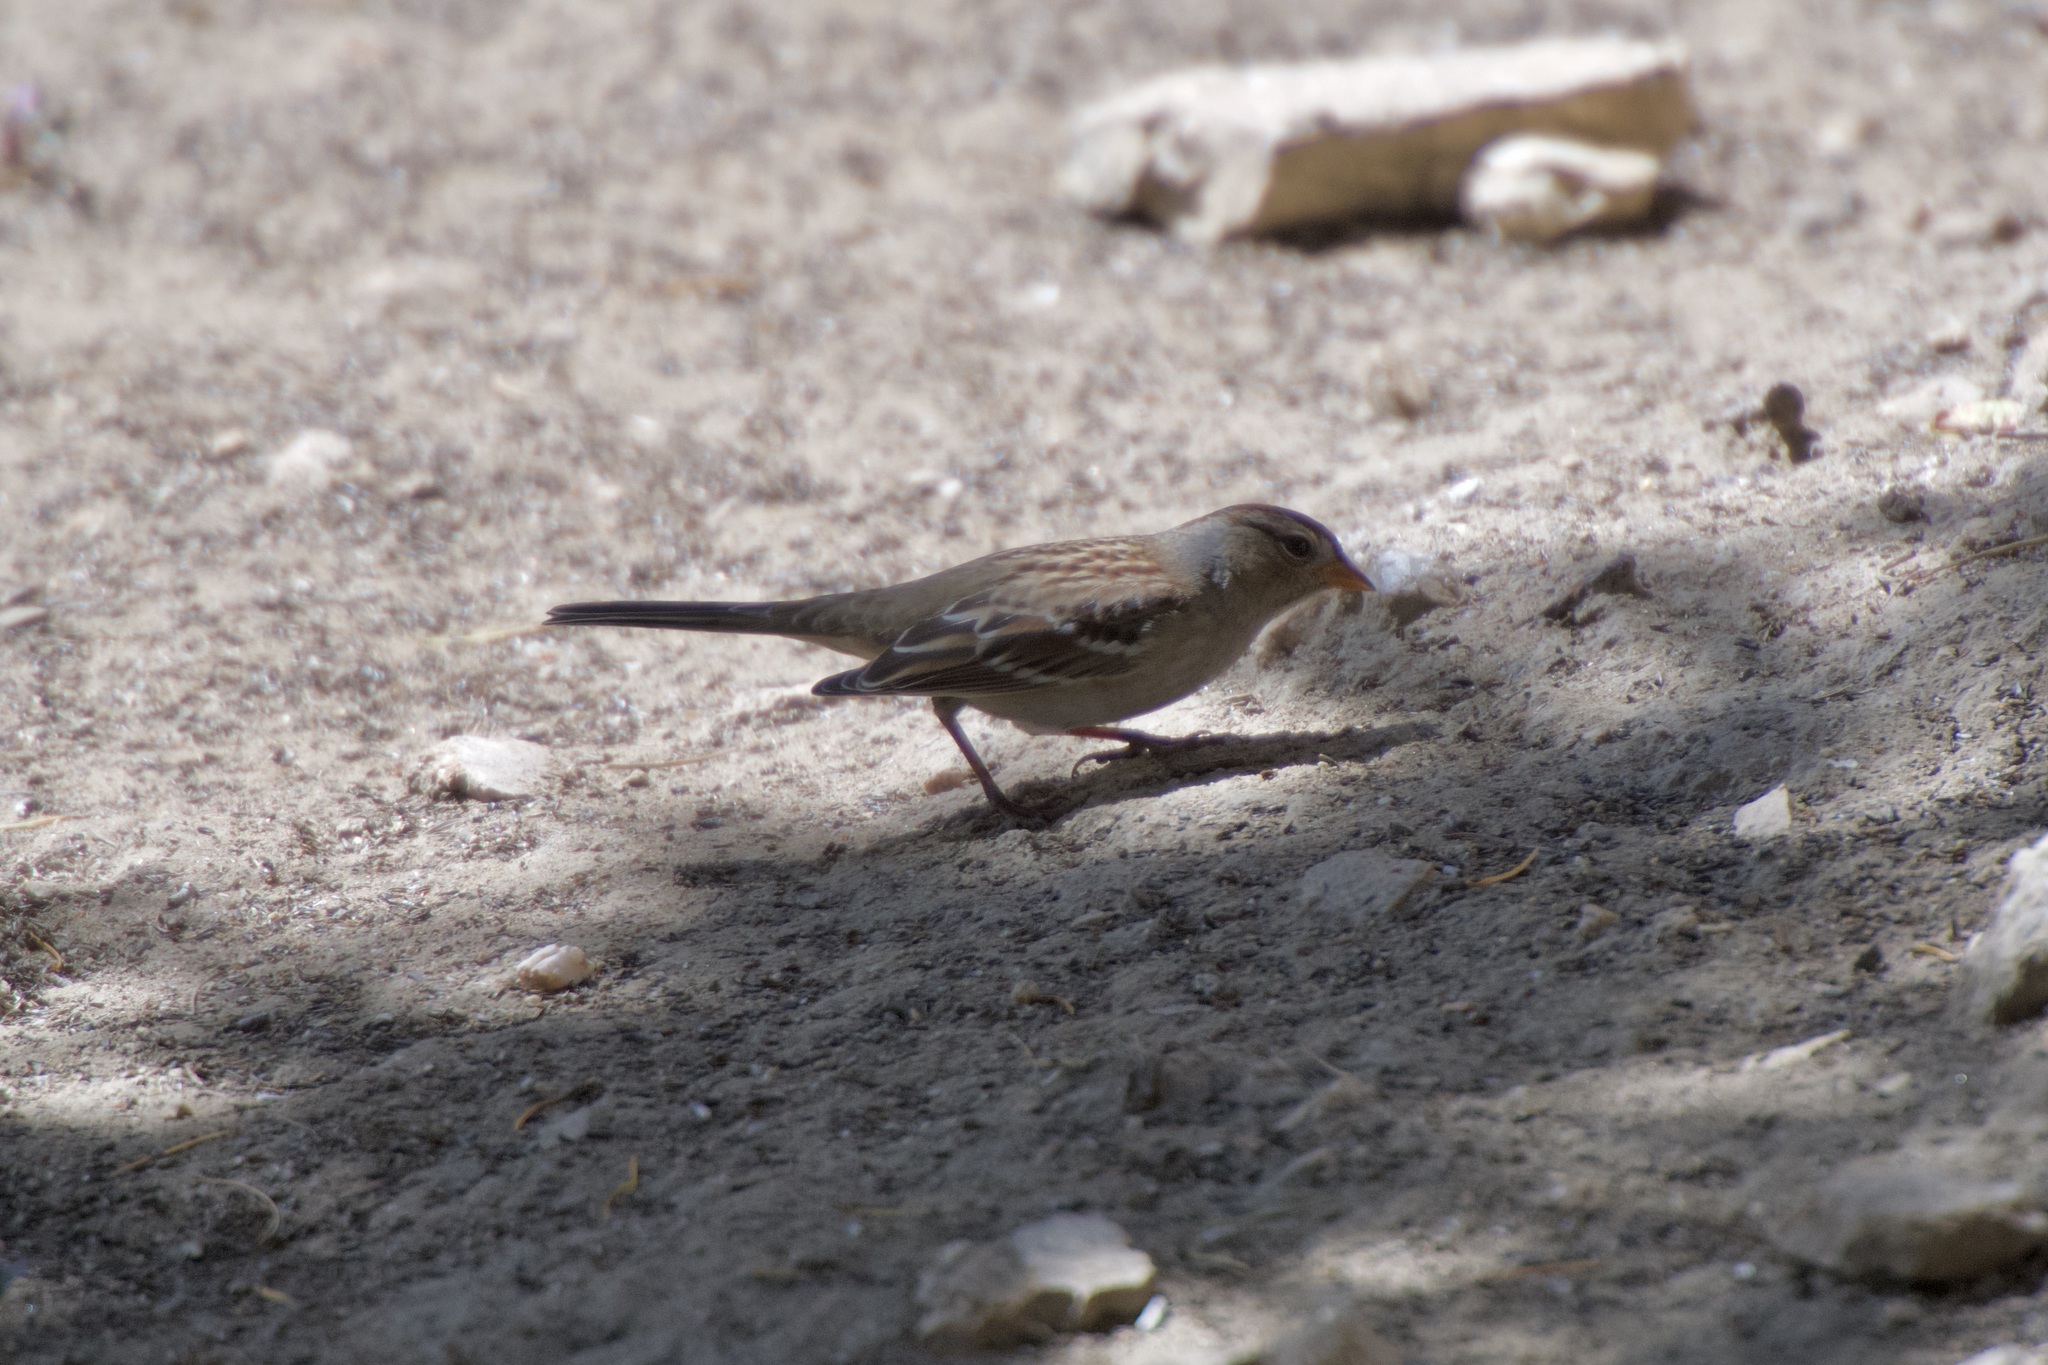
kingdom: Animalia
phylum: Chordata
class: Aves
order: Passeriformes
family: Passerellidae
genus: Zonotrichia
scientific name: Zonotrichia leucophrys
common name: White-crowned sparrow
